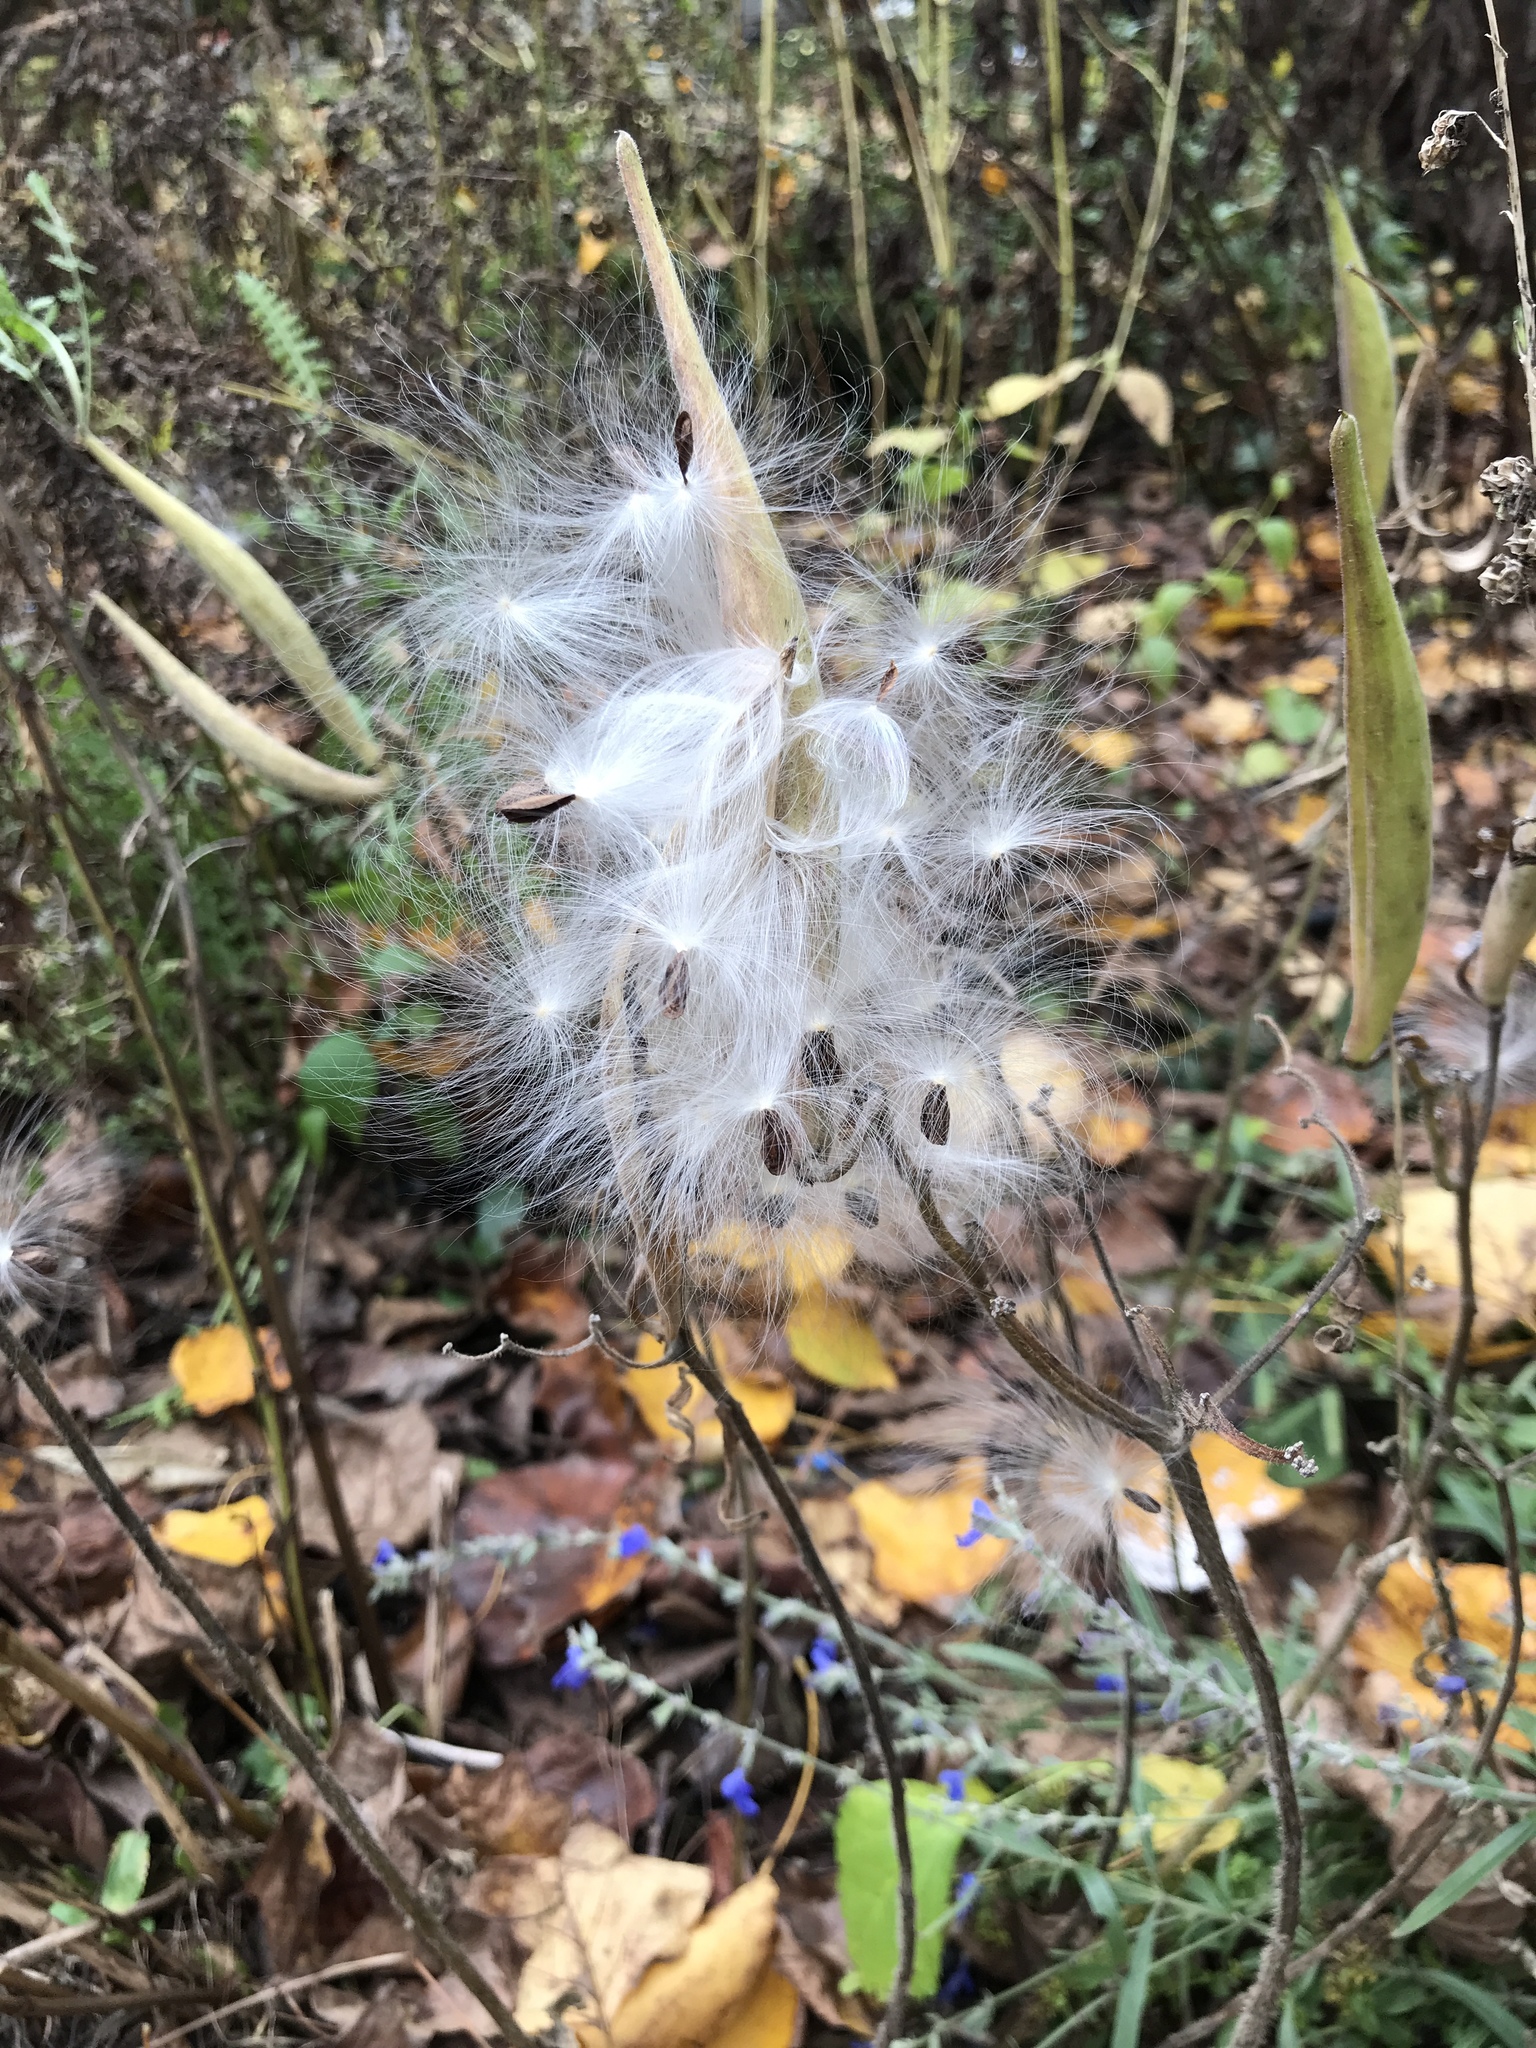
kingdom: Plantae
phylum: Tracheophyta
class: Magnoliopsida
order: Gentianales
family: Apocynaceae
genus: Asclepias
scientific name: Asclepias tuberosa
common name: Butterfly milkweed
